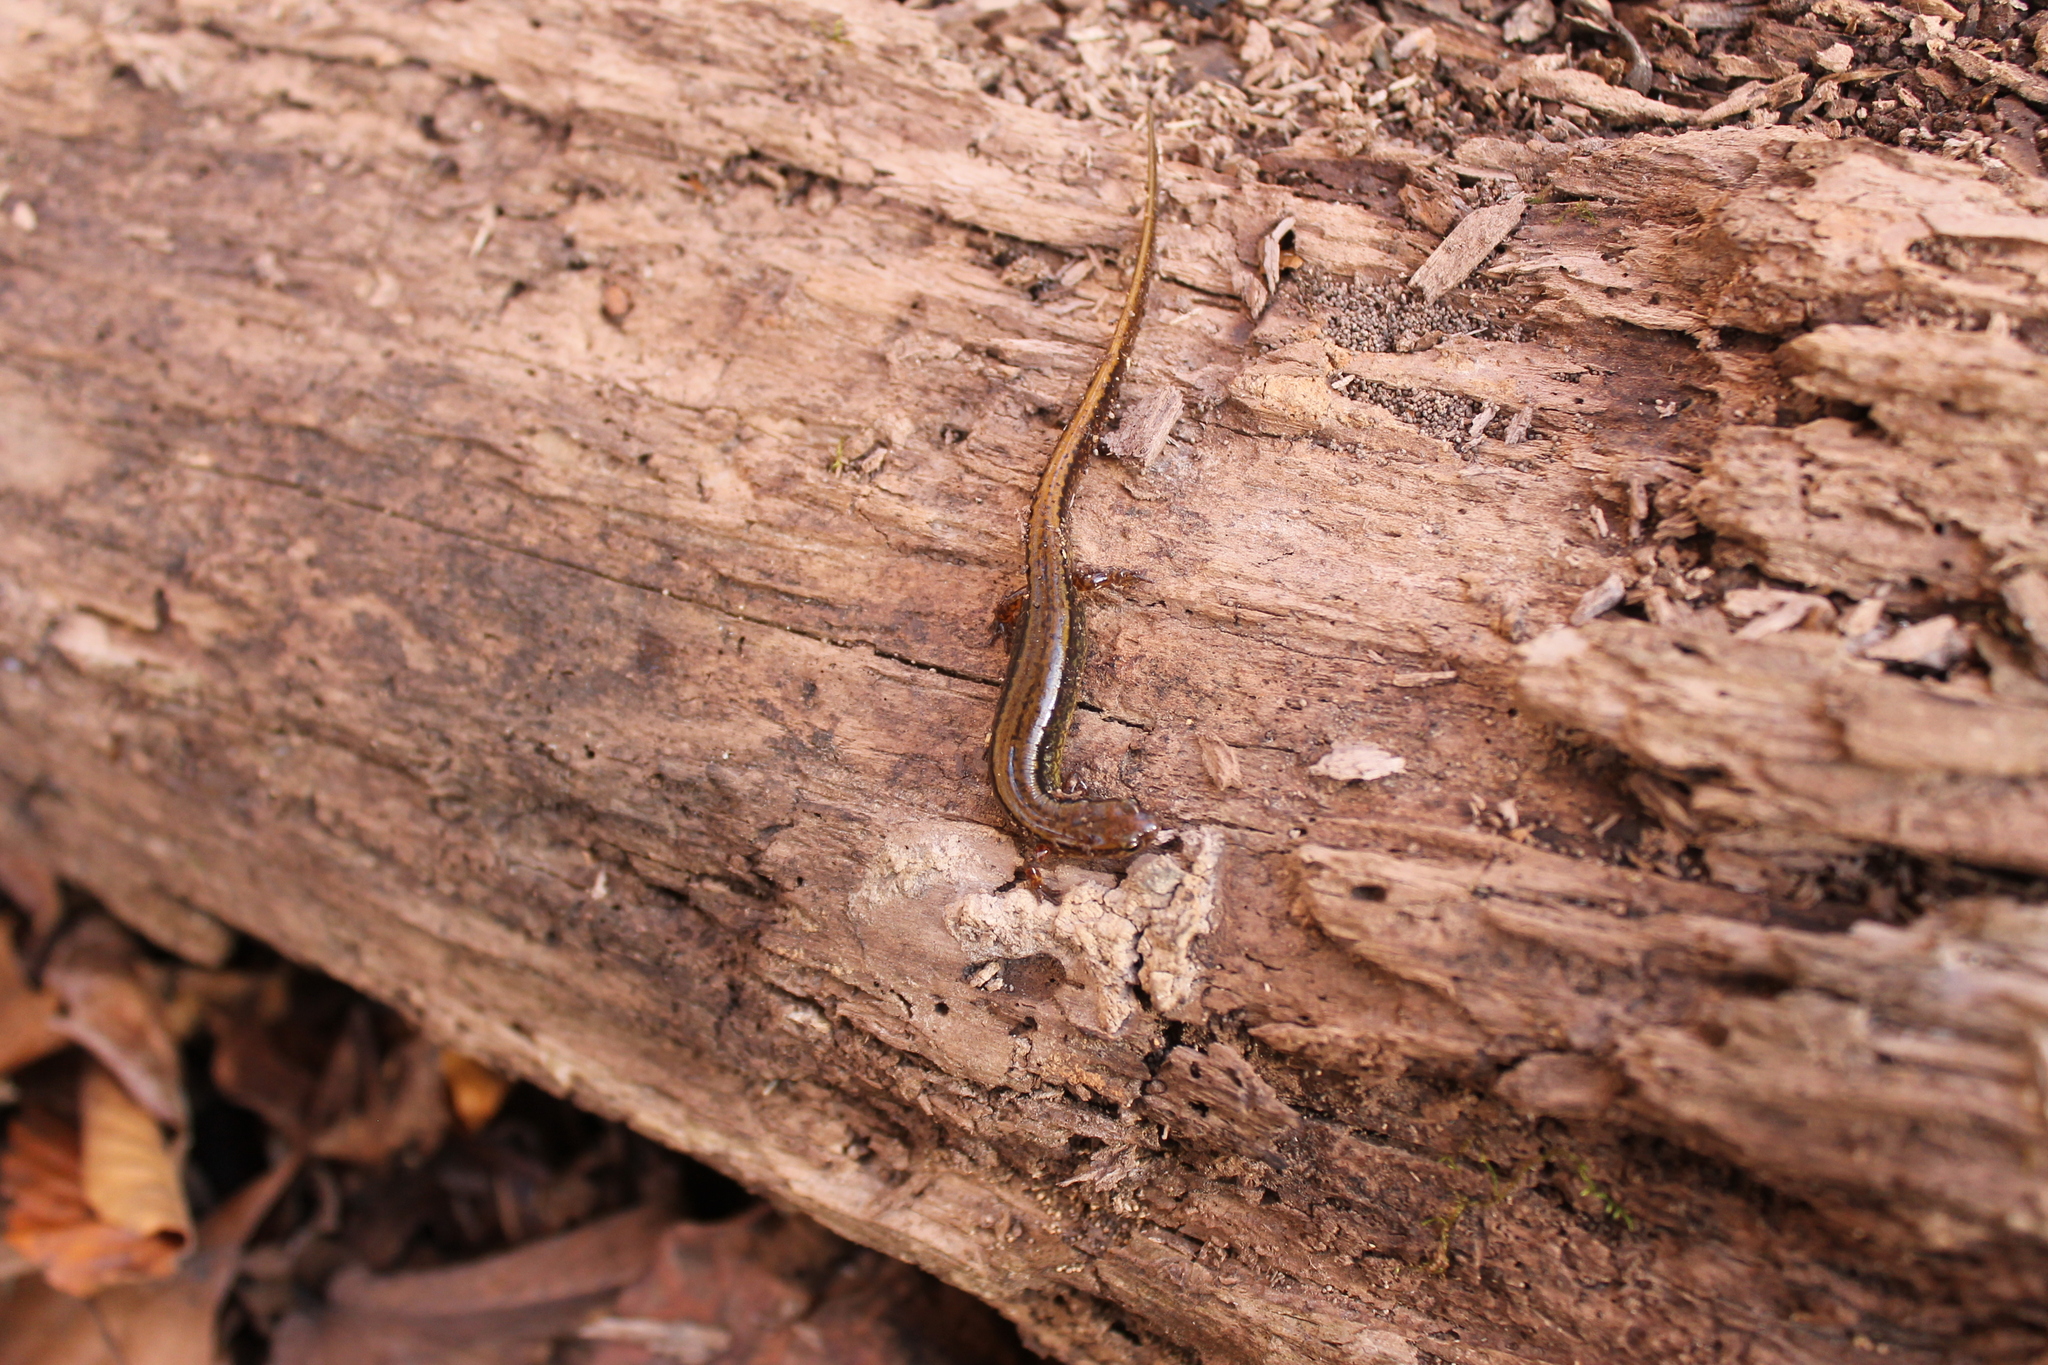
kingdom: Animalia
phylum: Chordata
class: Amphibia
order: Caudata
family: Plethodontidae
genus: Eurycea
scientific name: Eurycea cirrigera
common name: Southern two-lined salamander
